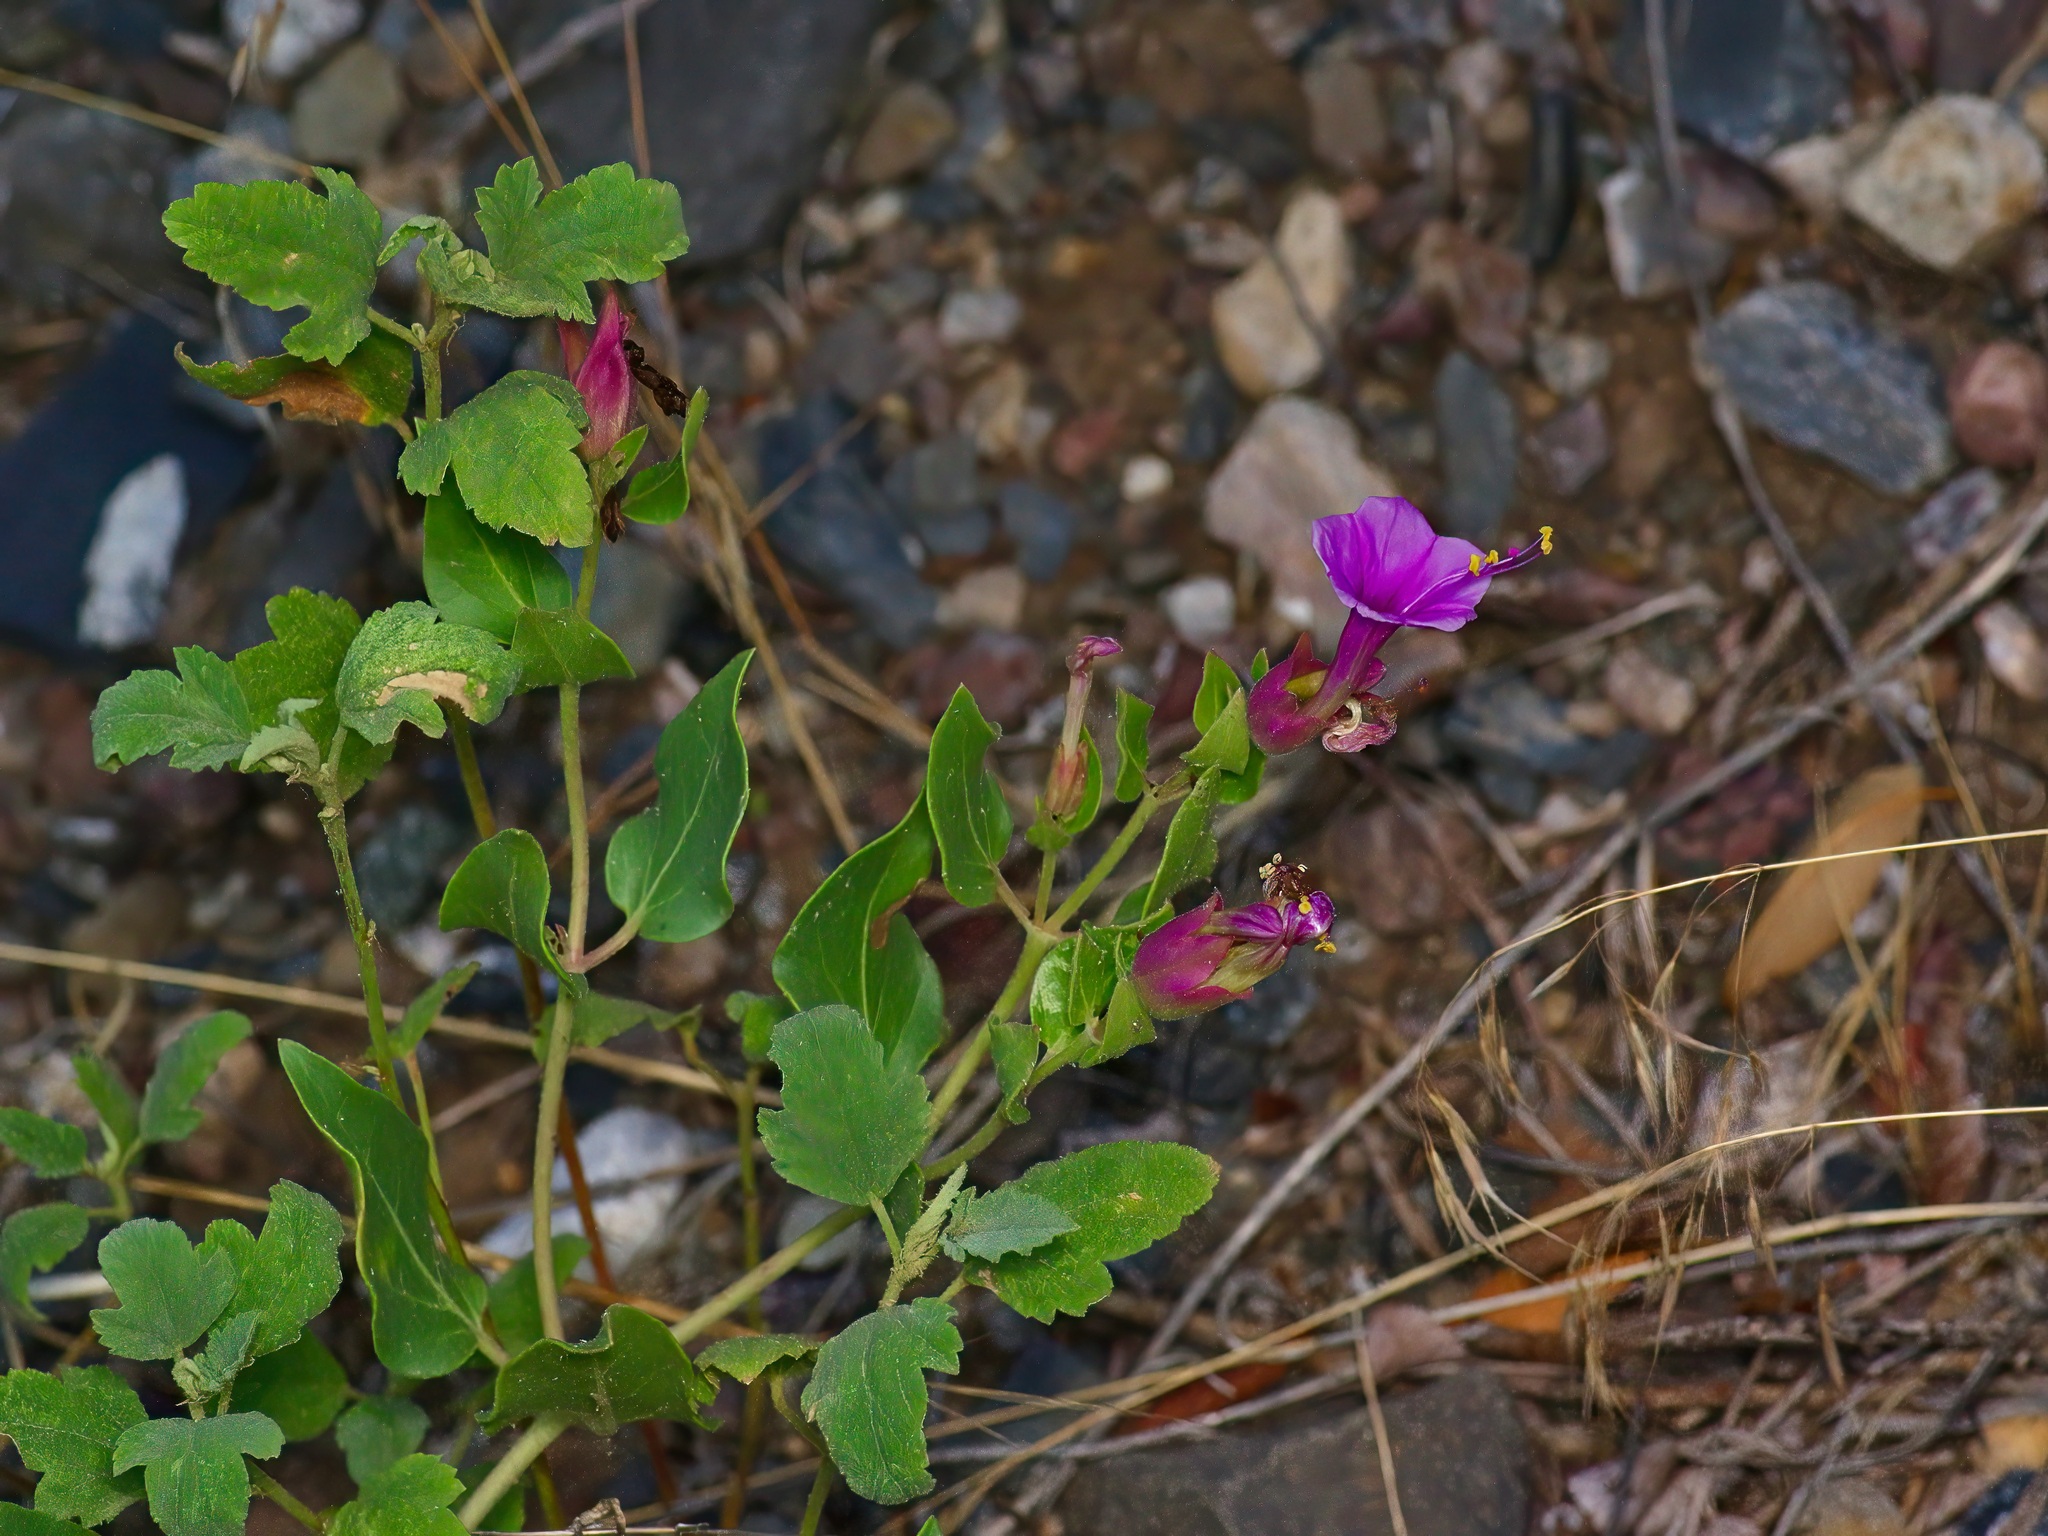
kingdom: Plantae
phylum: Tracheophyta
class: Magnoliopsida
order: Caryophyllales
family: Nyctaginaceae
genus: Mirabilis
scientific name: Mirabilis multiflora
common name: Froebel's four-o'clock
